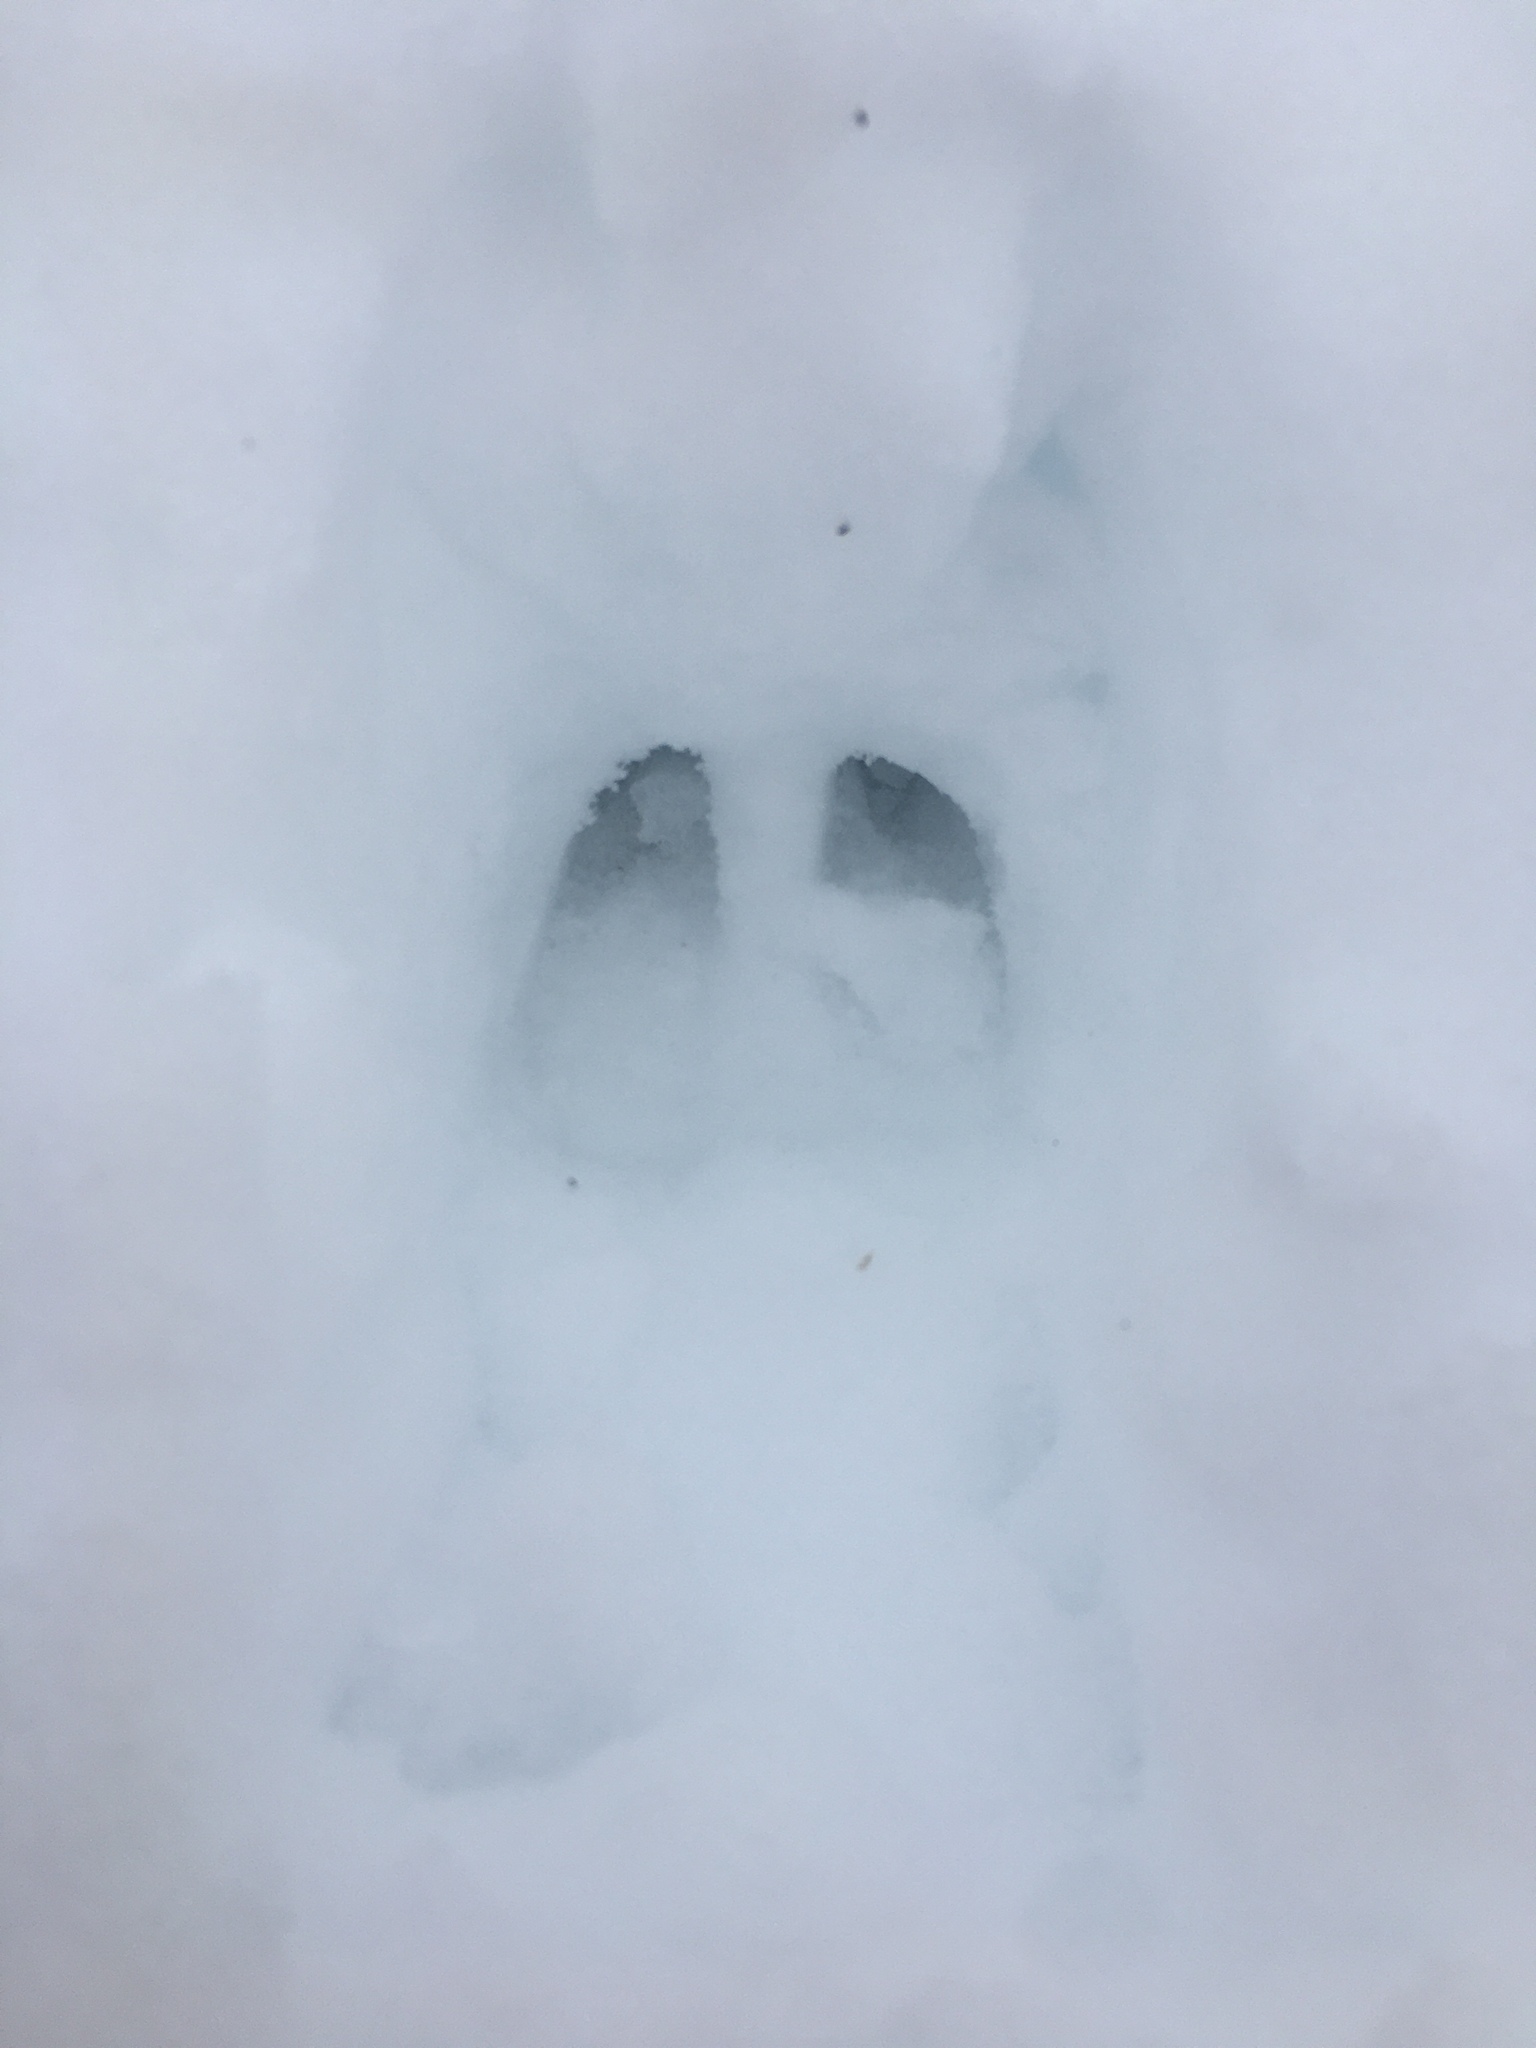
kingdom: Animalia
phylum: Chordata
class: Mammalia
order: Artiodactyla
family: Cervidae
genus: Odocoileus
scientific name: Odocoileus virginianus
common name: White-tailed deer
